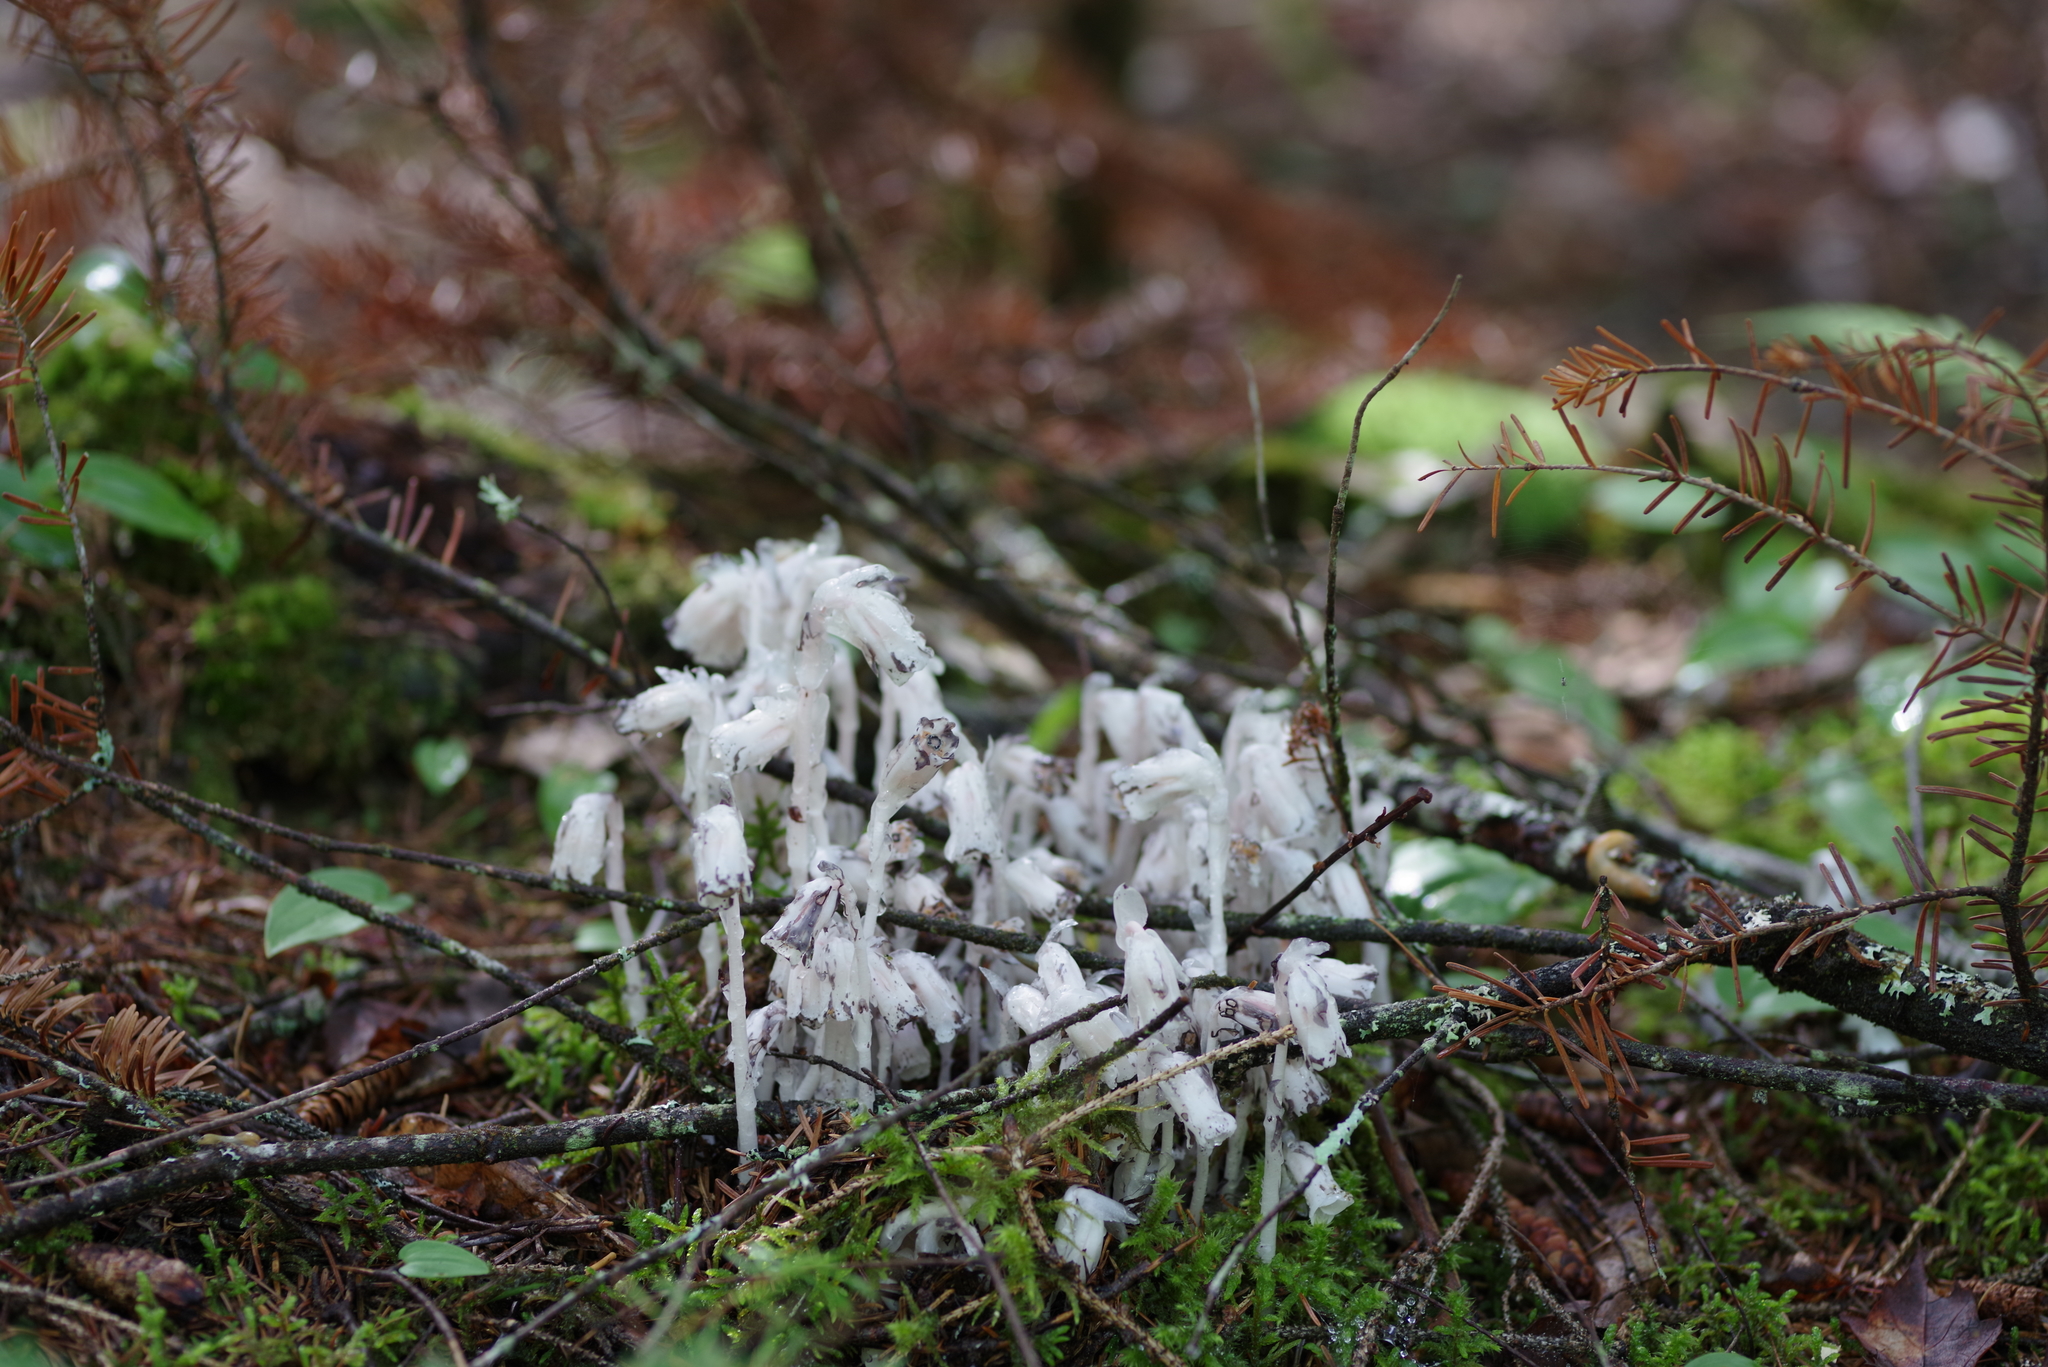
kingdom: Plantae
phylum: Tracheophyta
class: Magnoliopsida
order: Ericales
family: Ericaceae
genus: Monotropa
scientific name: Monotropa uniflora
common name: Convulsion root
